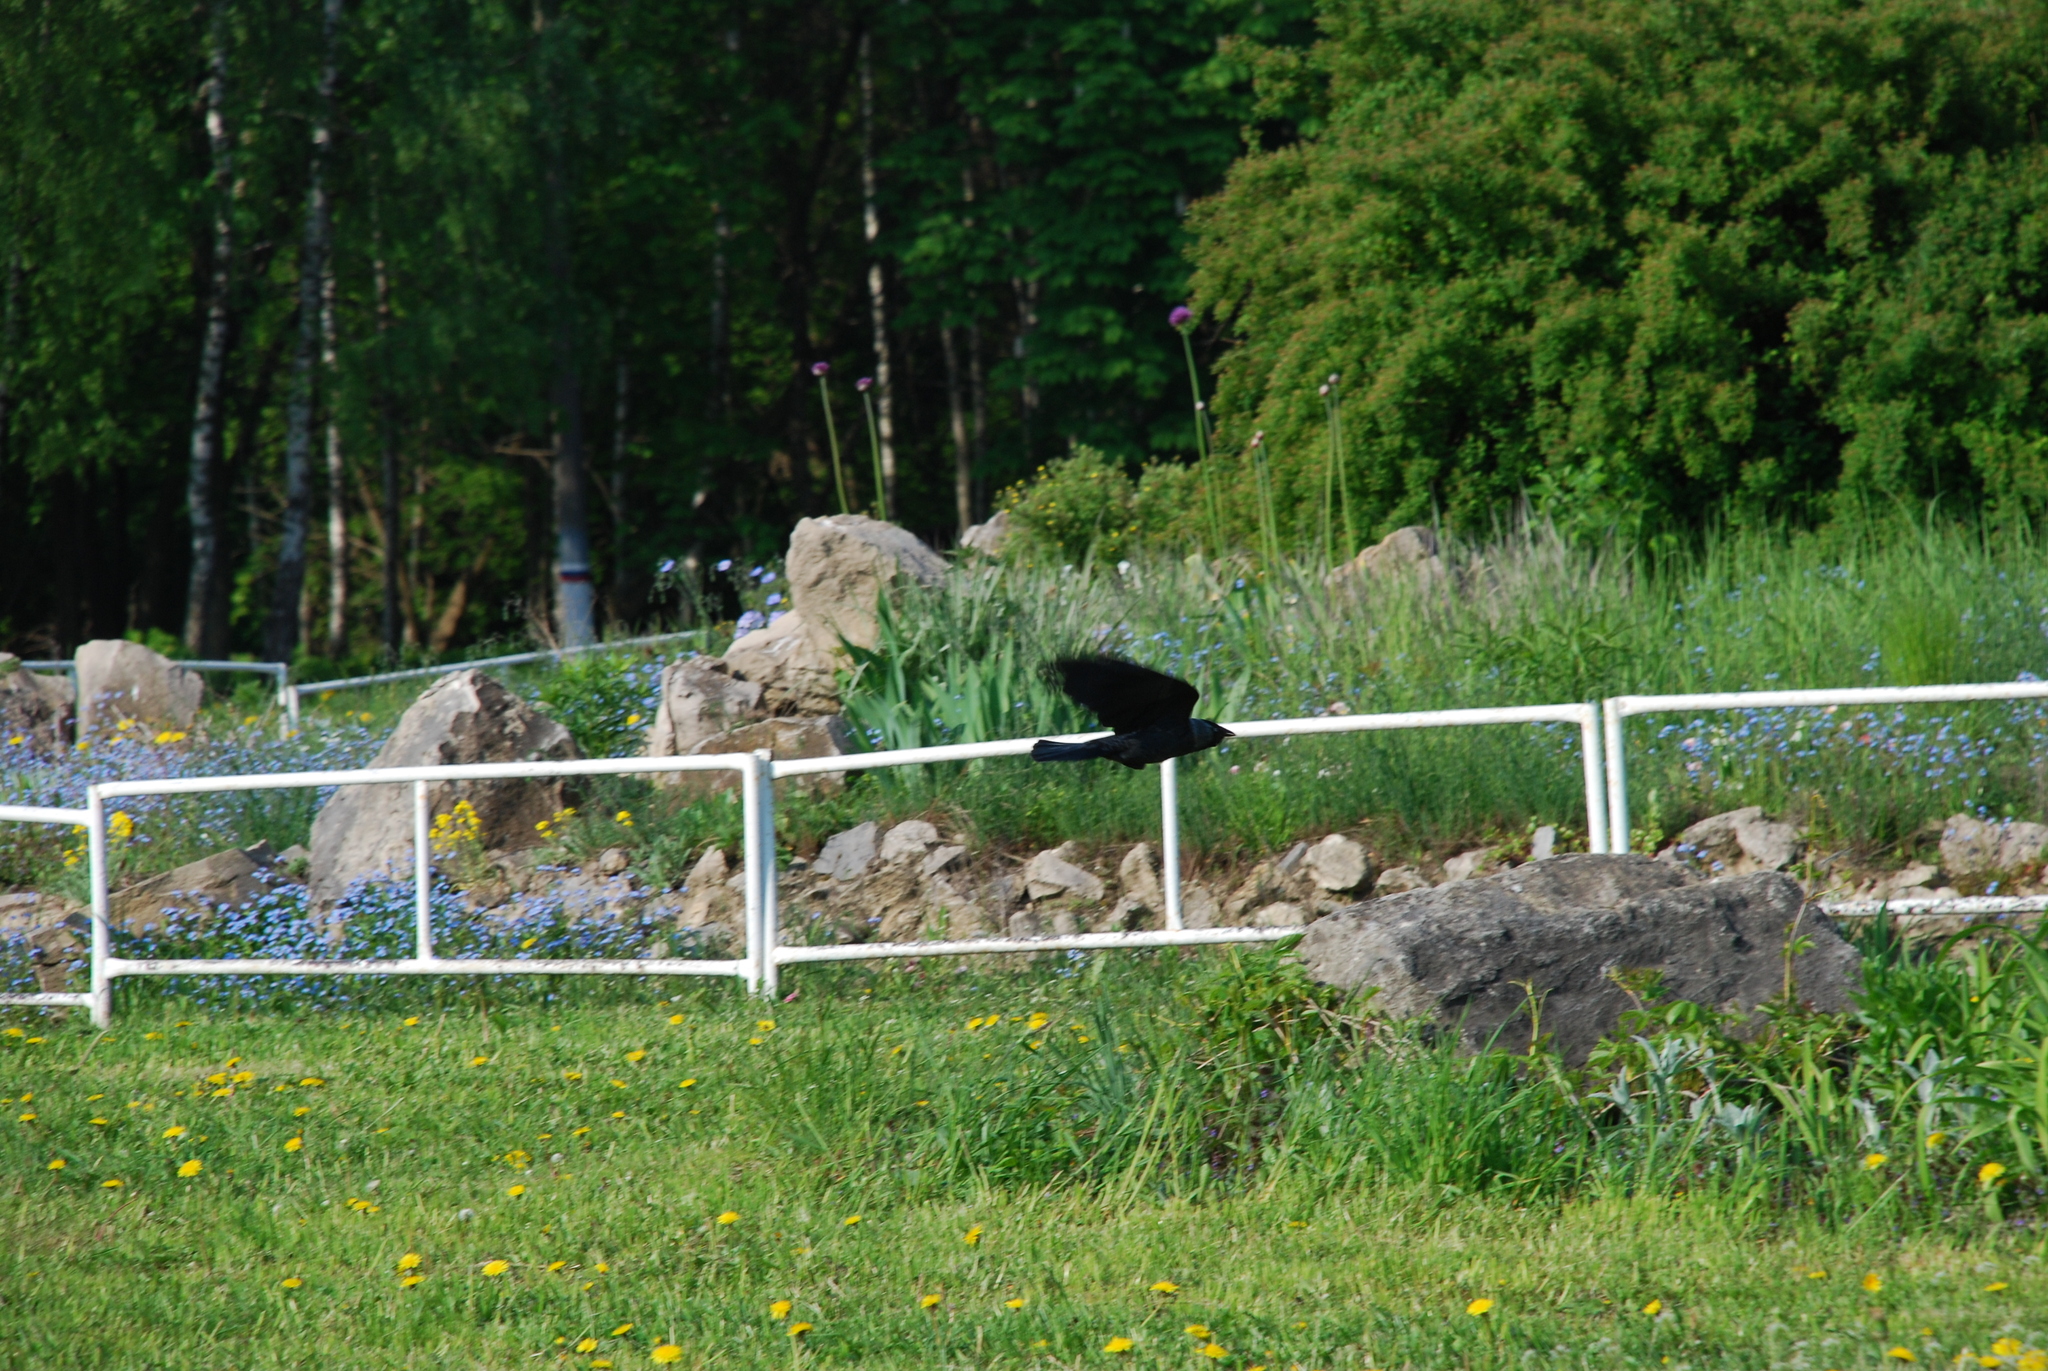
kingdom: Animalia
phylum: Chordata
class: Aves
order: Passeriformes
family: Corvidae
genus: Coloeus
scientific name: Coloeus monedula
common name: Western jackdaw
